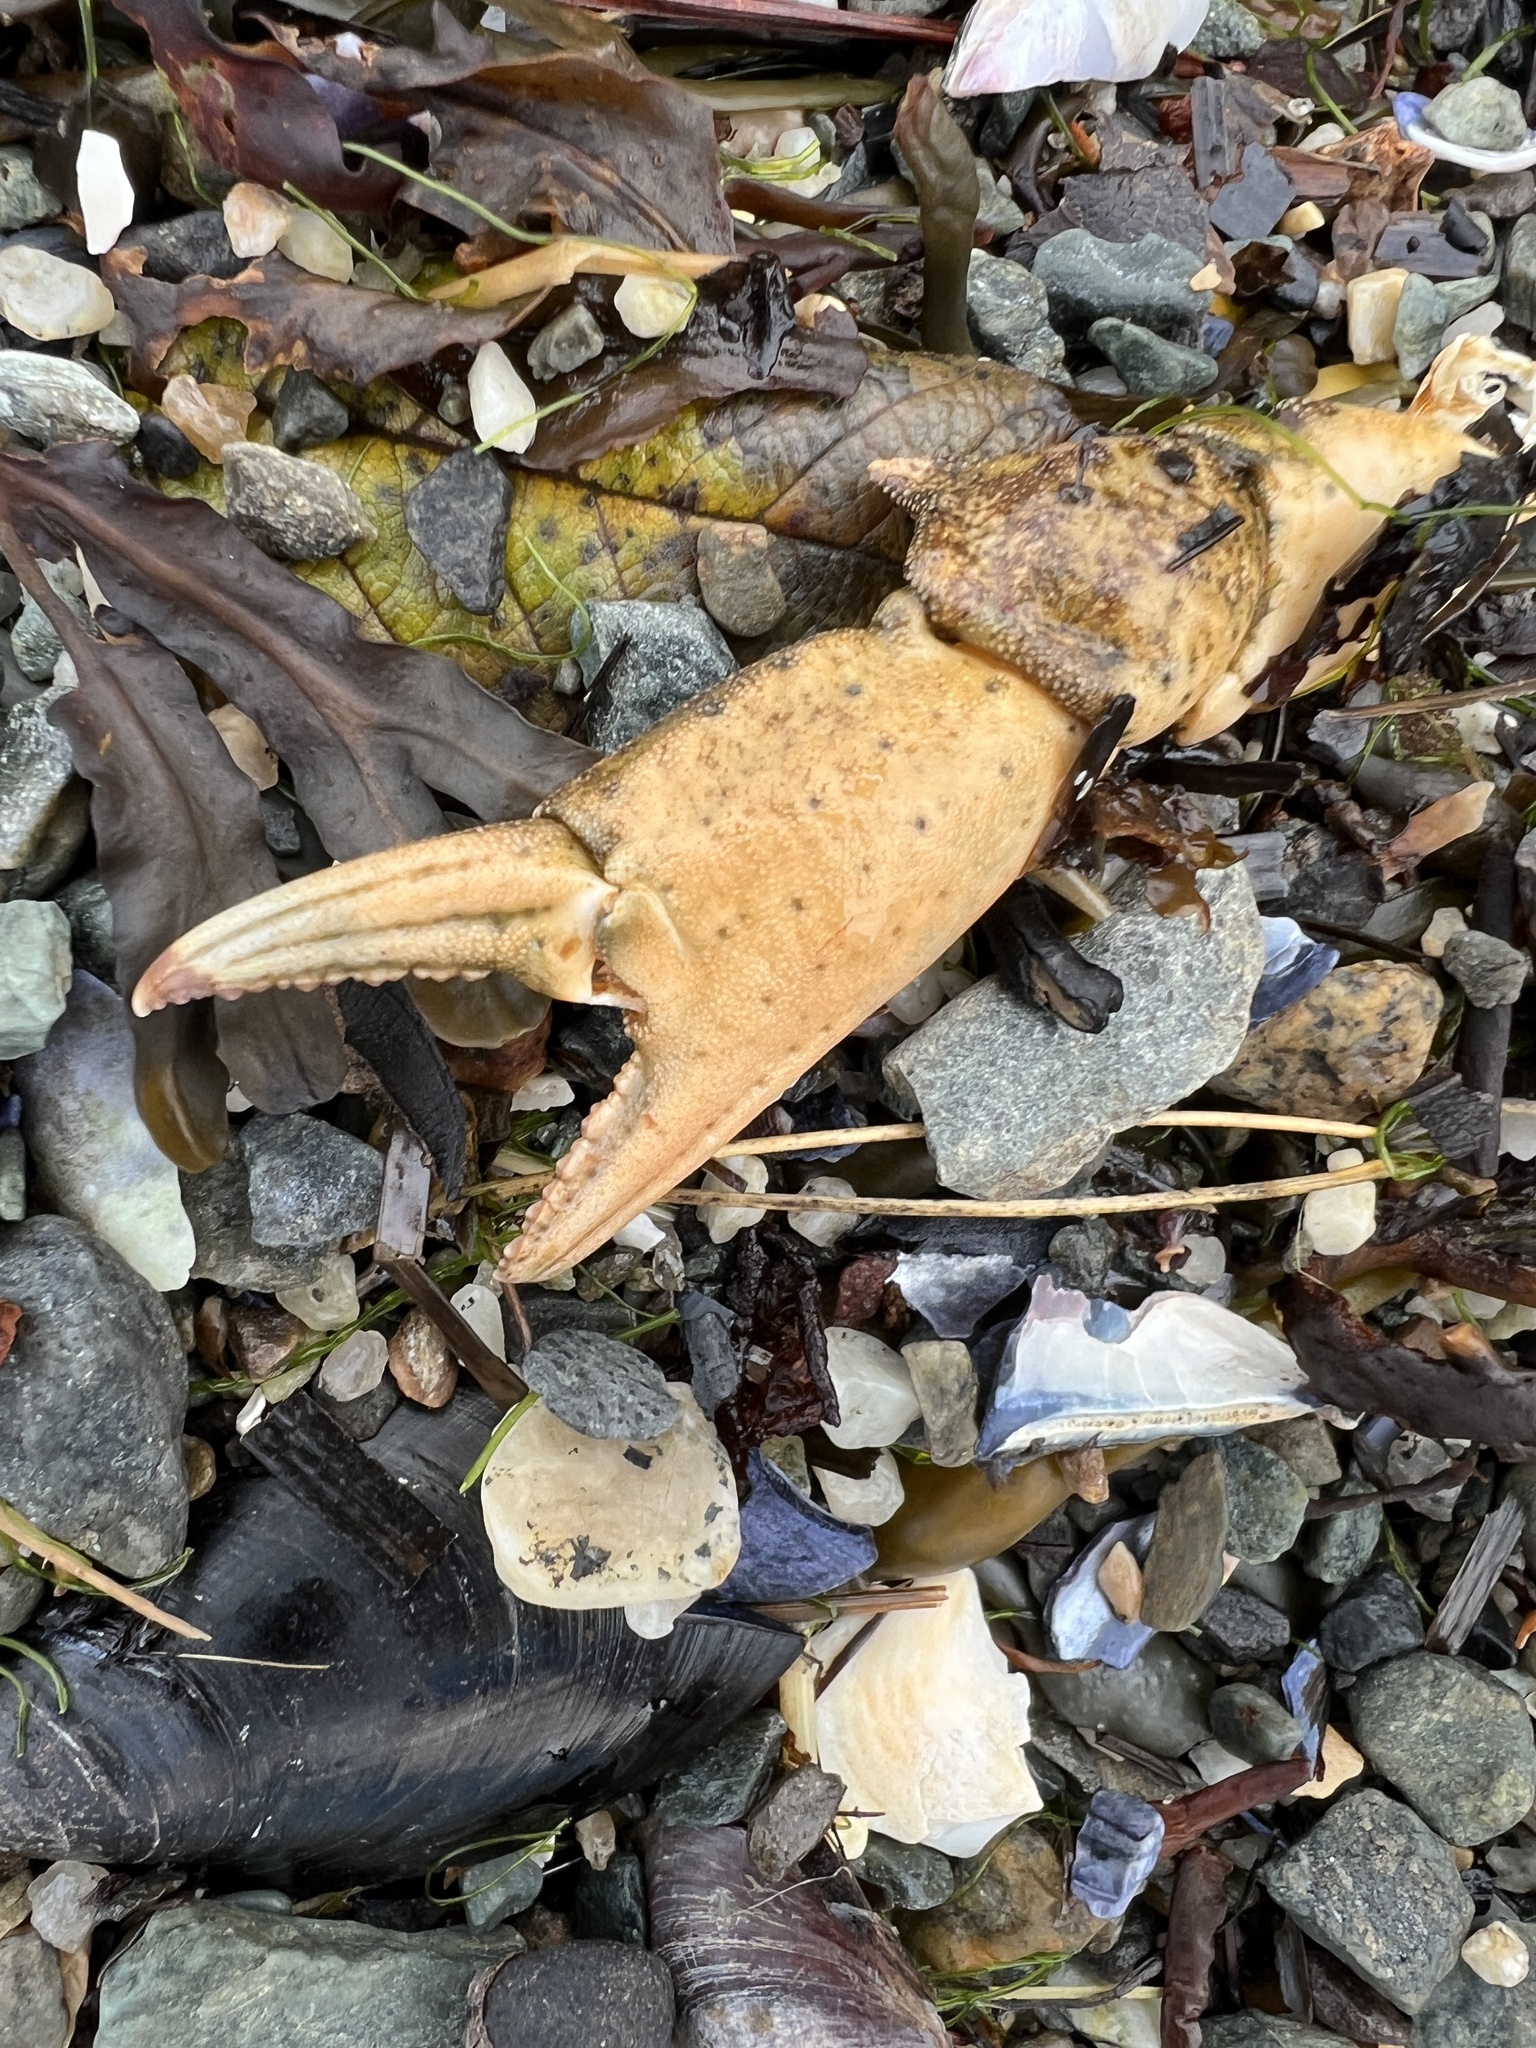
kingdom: Animalia
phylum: Arthropoda
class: Malacostraca
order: Decapoda
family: Carcinidae
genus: Carcinus
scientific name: Carcinus maenas
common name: European green crab
